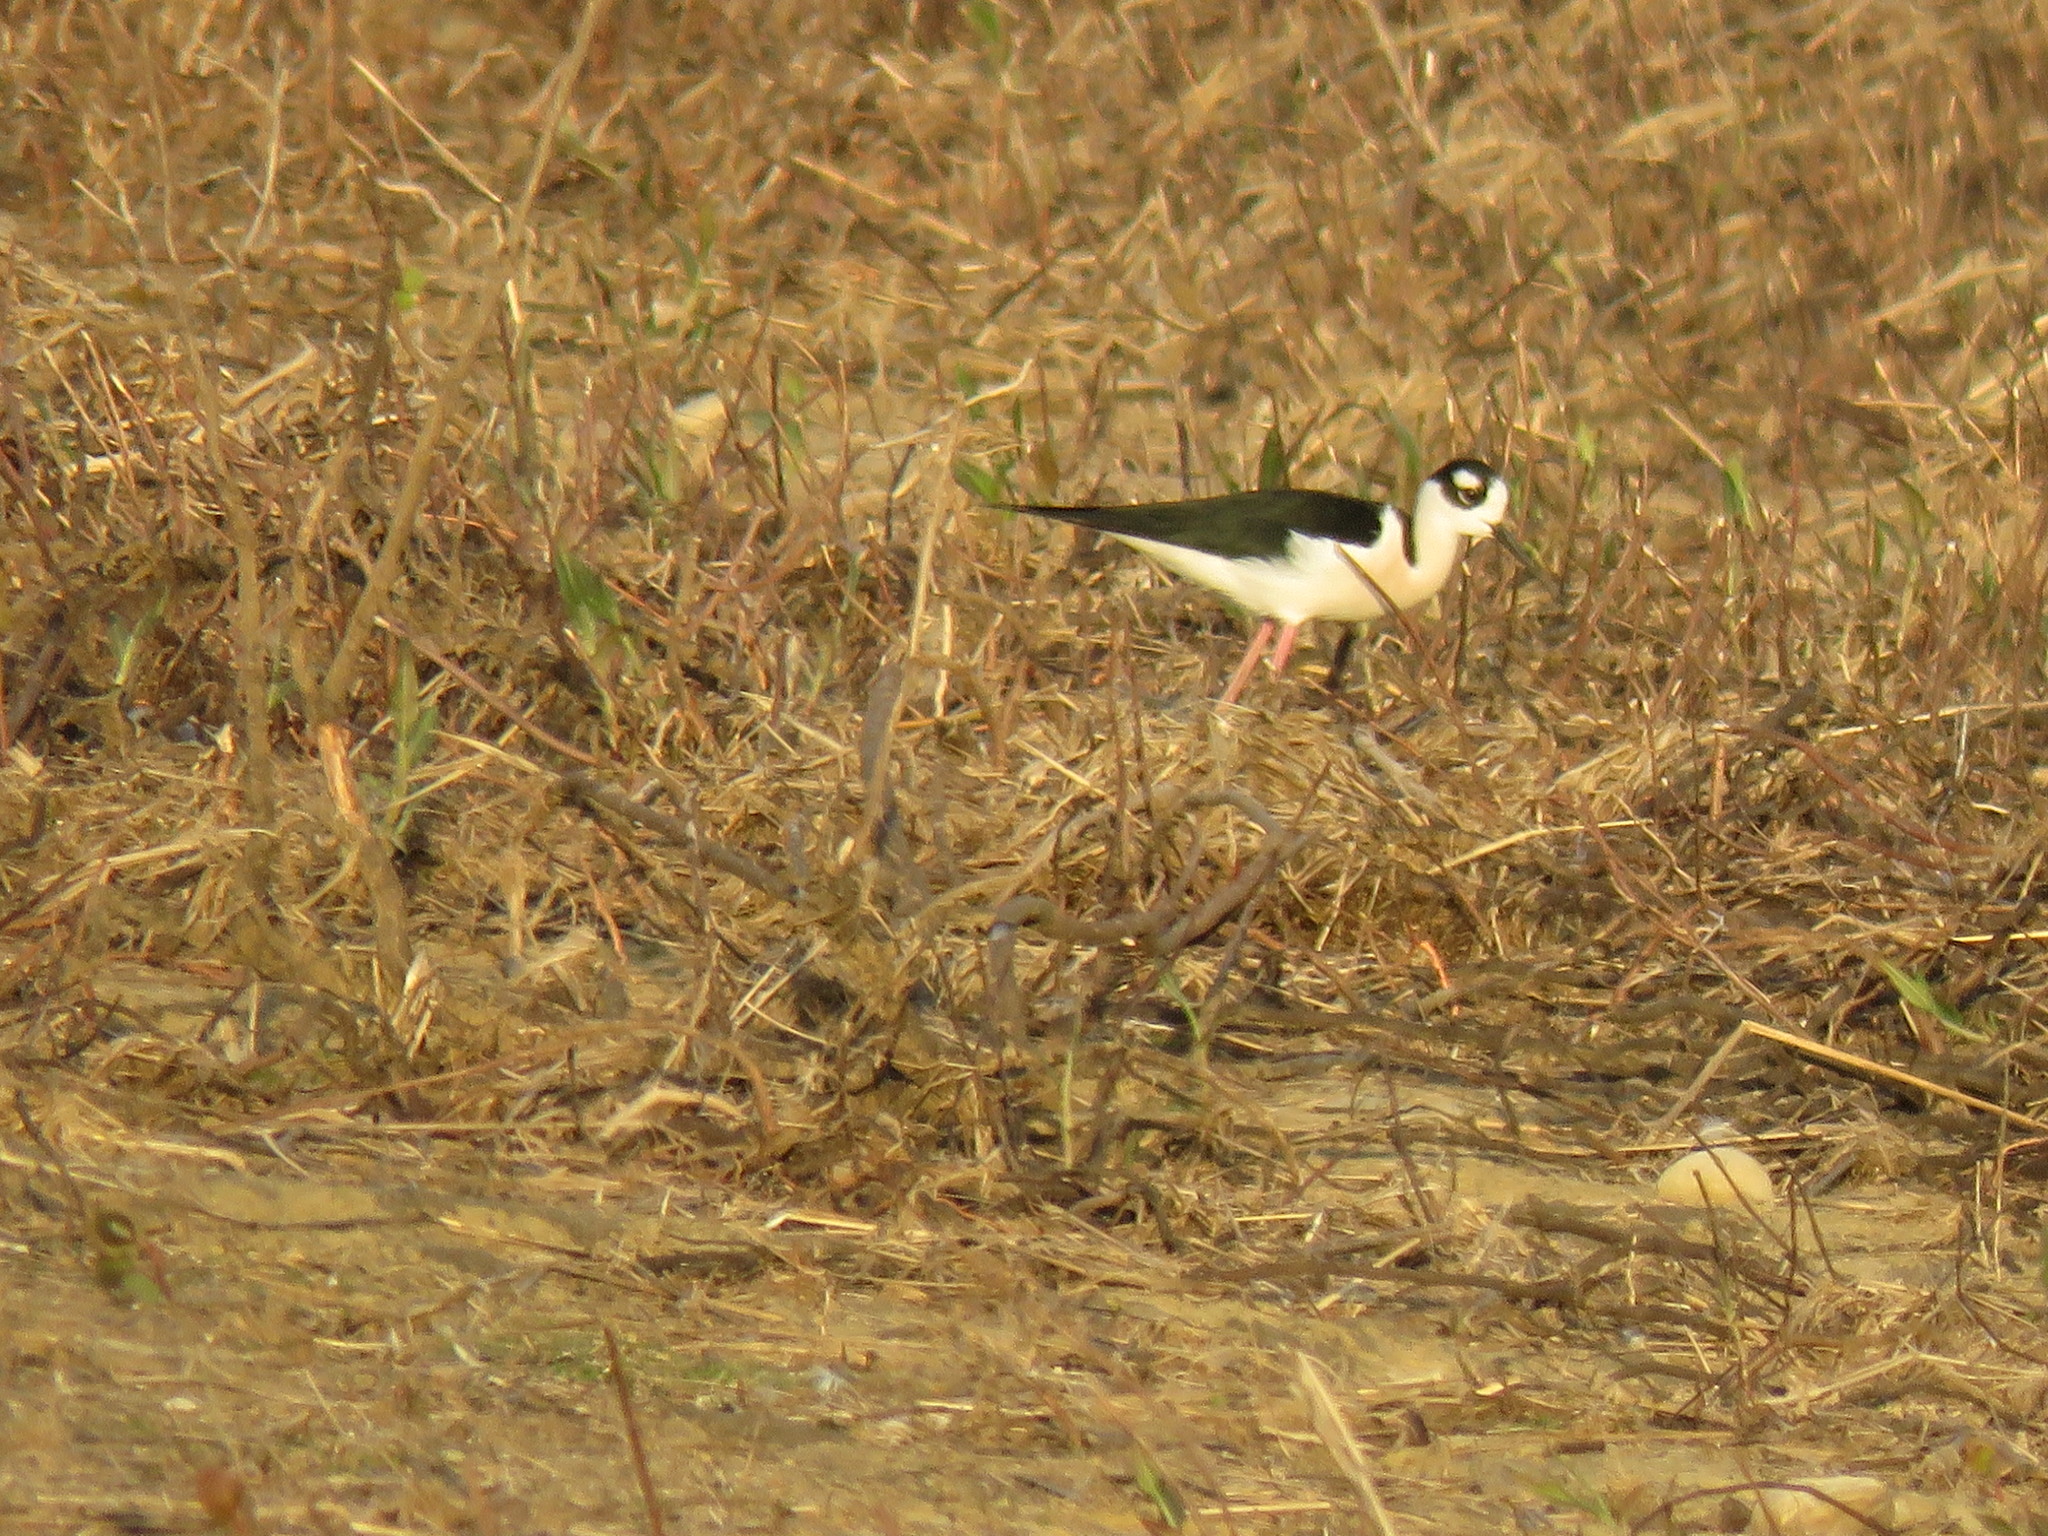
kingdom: Animalia
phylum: Chordata
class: Aves
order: Charadriiformes
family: Recurvirostridae
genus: Himantopus
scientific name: Himantopus mexicanus
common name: Black-necked stilt
